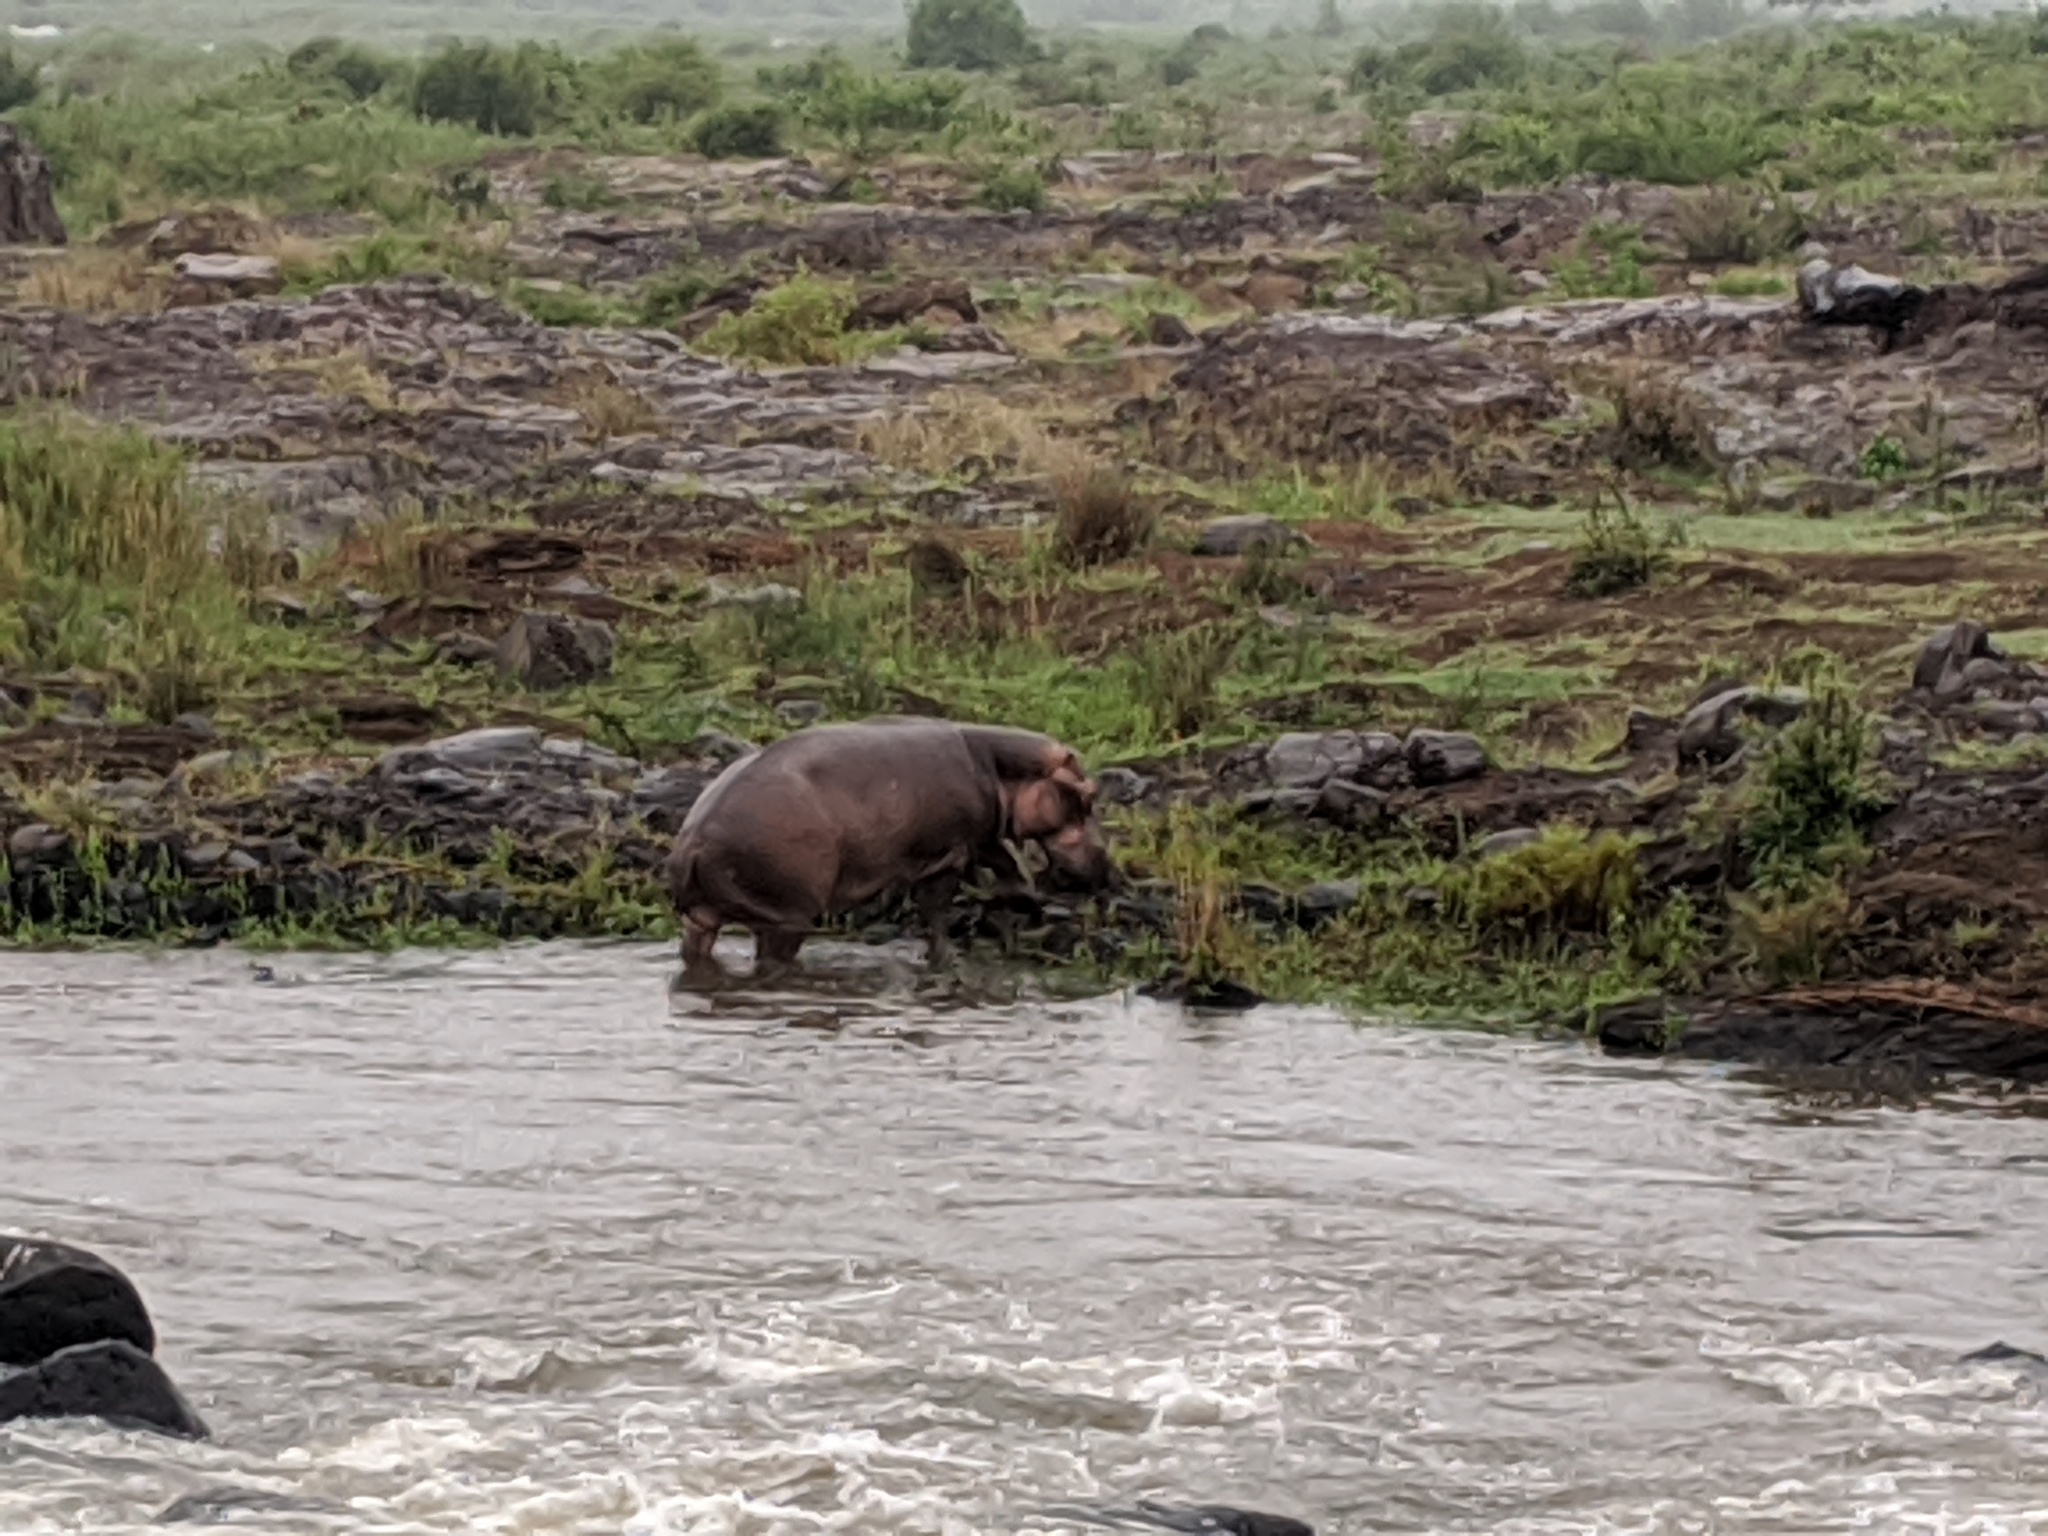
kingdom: Animalia
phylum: Chordata
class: Mammalia
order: Artiodactyla
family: Hippopotamidae
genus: Hippopotamus
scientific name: Hippopotamus amphibius
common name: Common hippopotamus
